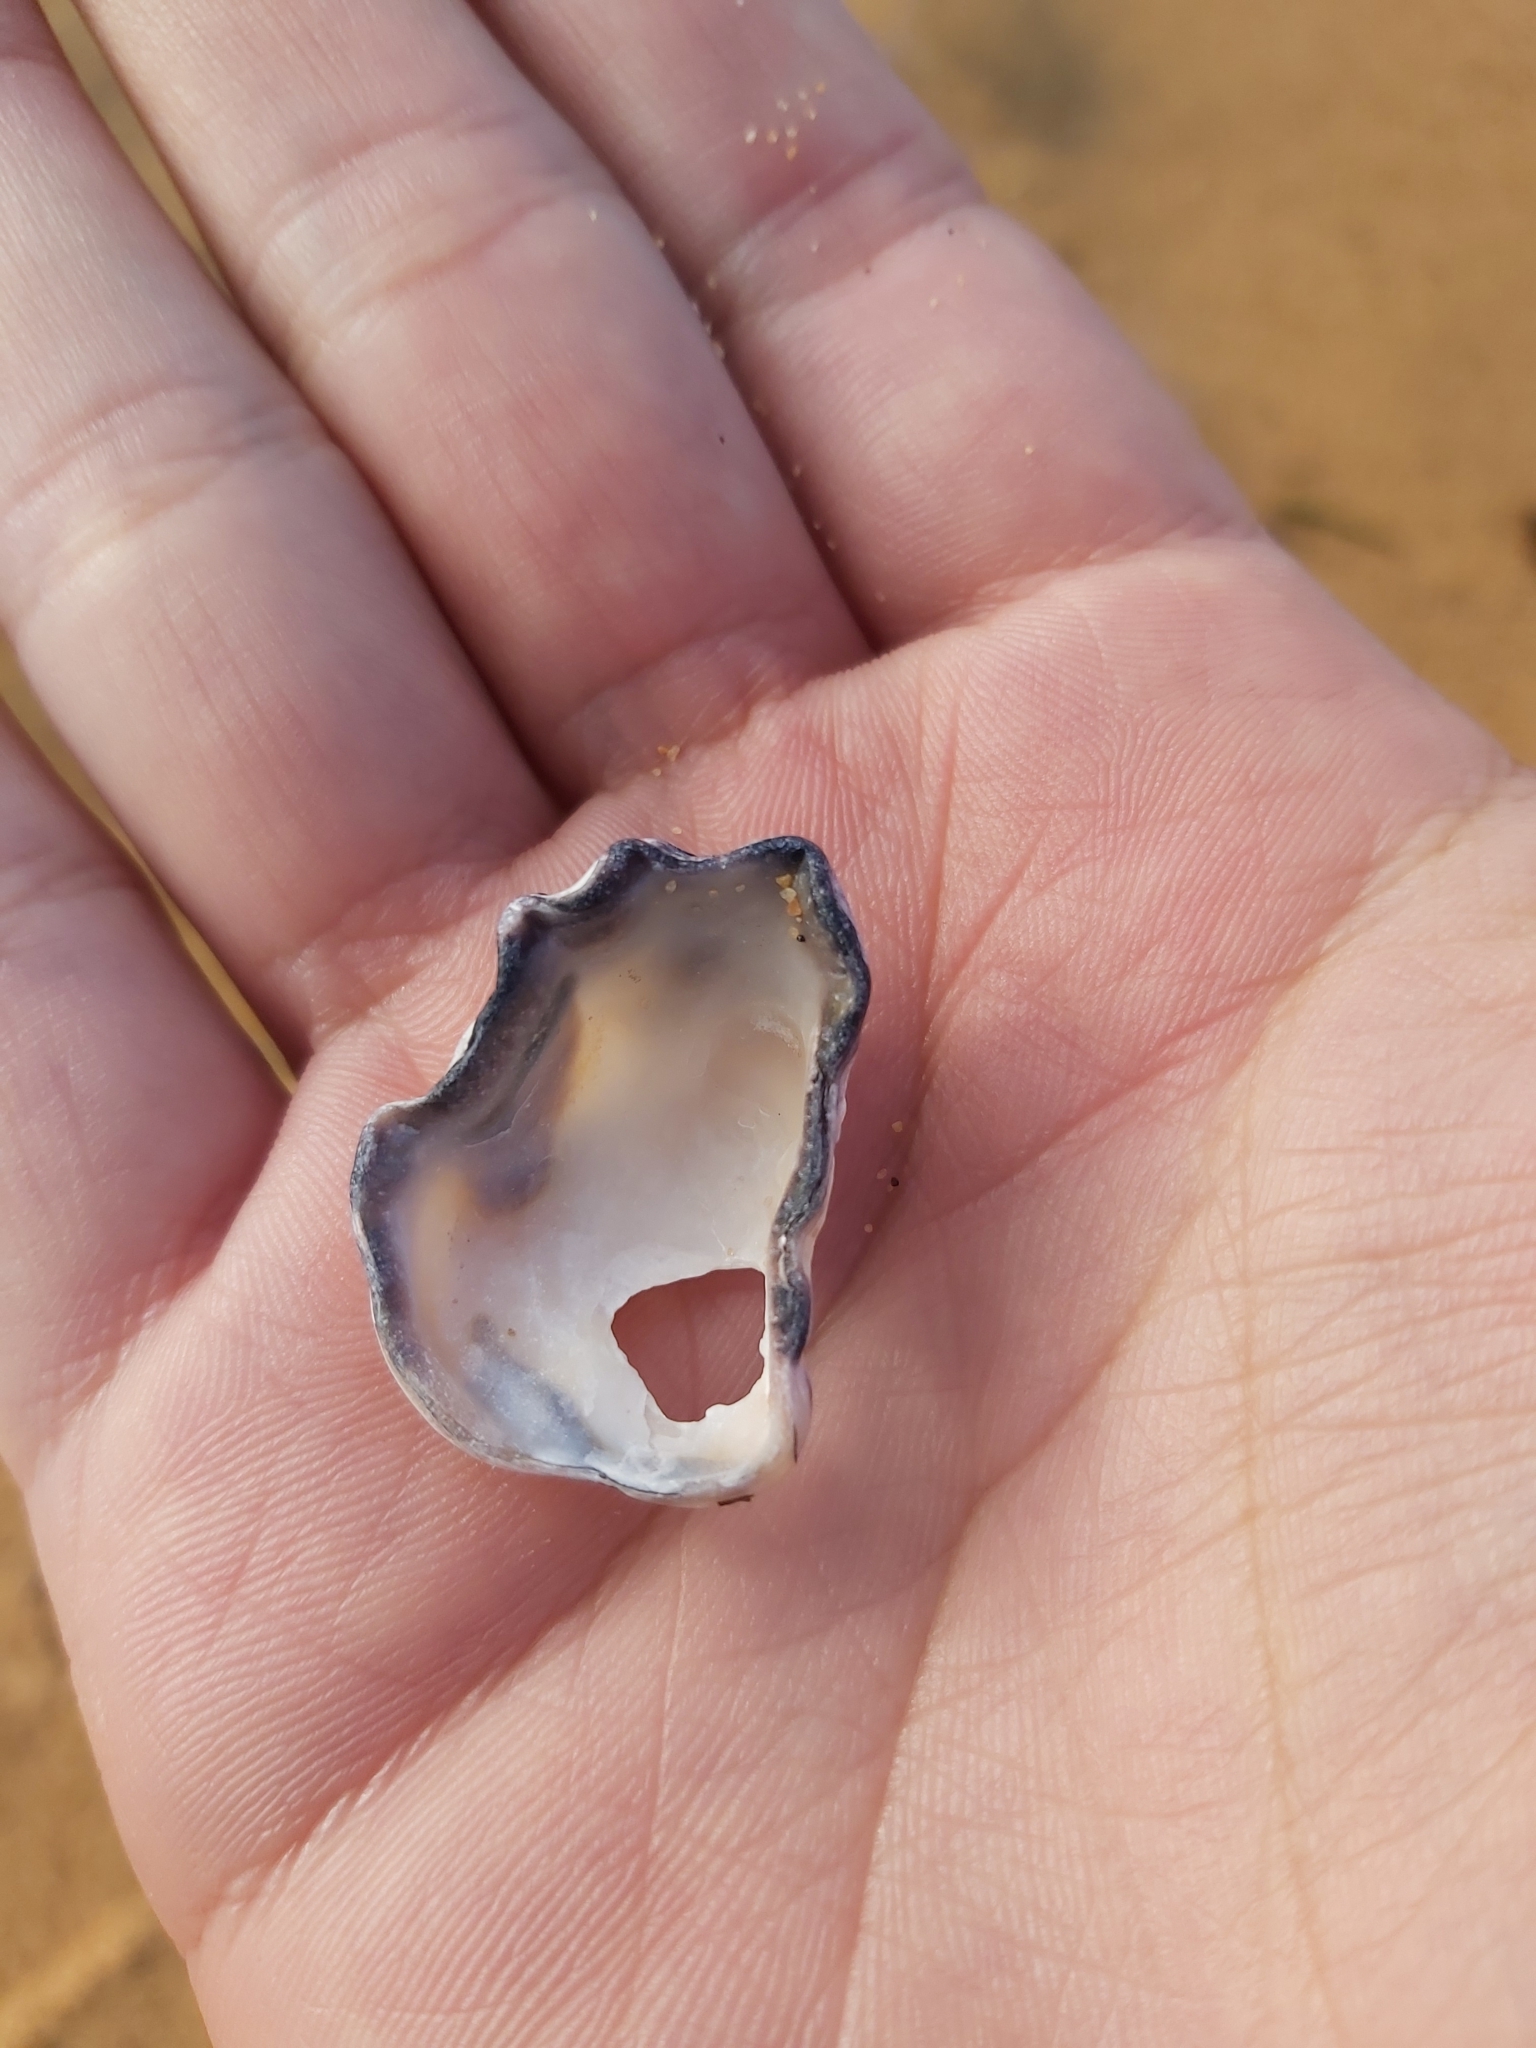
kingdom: Animalia
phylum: Mollusca
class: Bivalvia
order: Ostreida
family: Ostreidae
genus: Saccostrea
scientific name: Saccostrea glomerata
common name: Sydney cupped oyster
